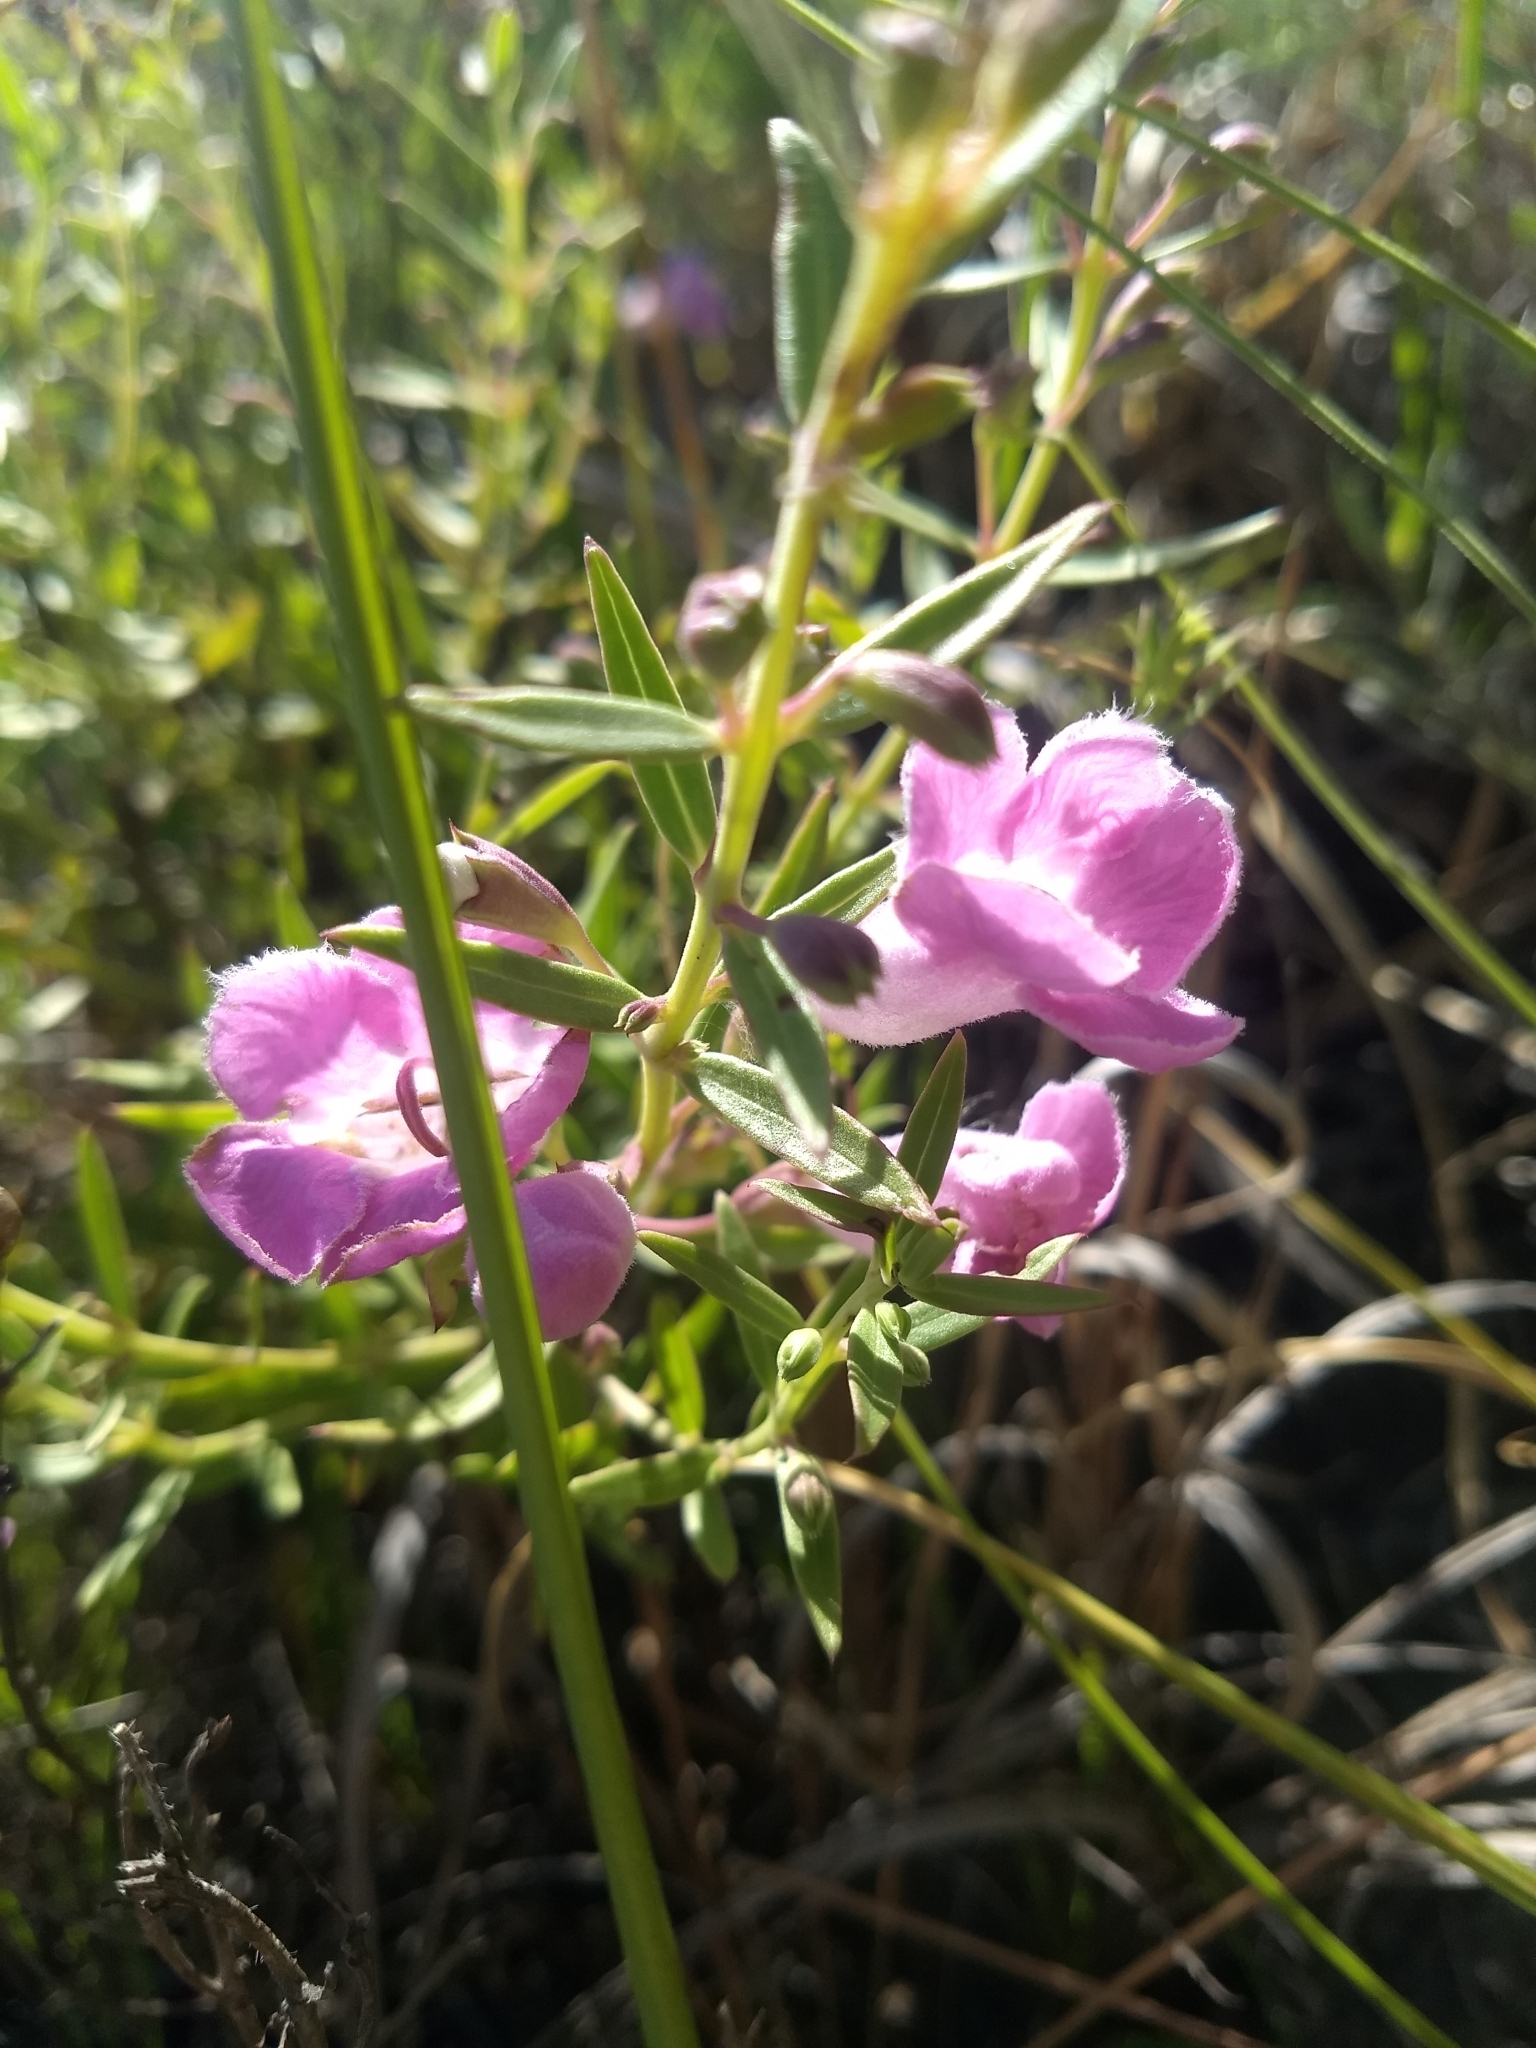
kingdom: Plantae
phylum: Tracheophyta
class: Magnoliopsida
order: Lamiales
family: Orobanchaceae
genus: Agalinis
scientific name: Agalinis genistifolia
